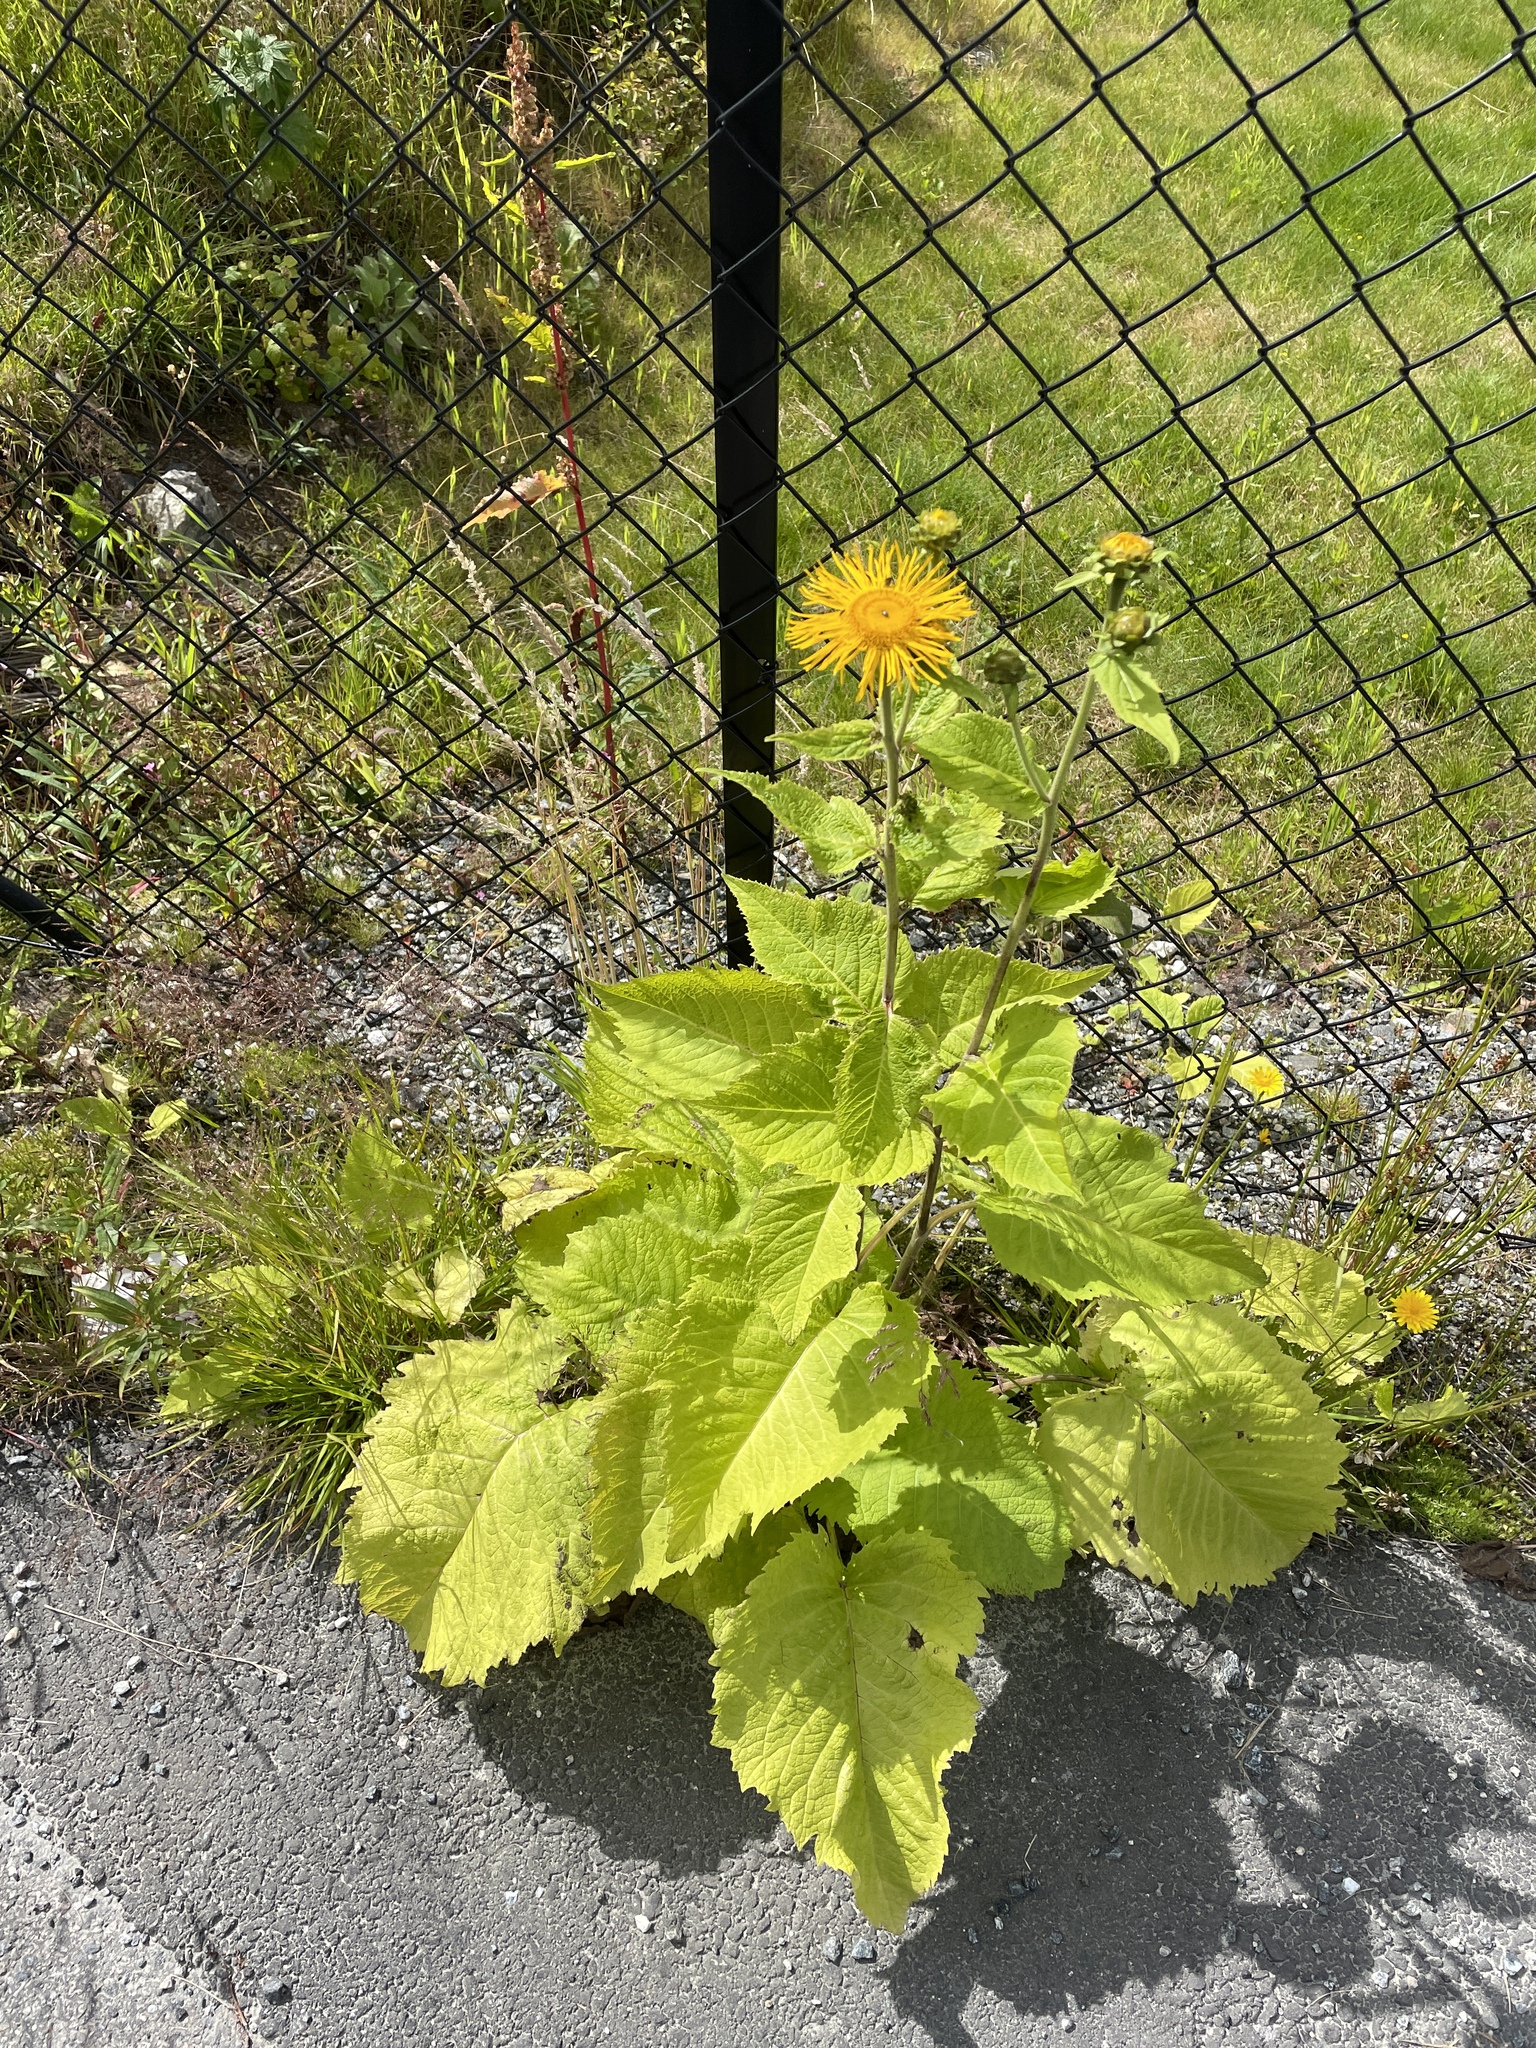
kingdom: Plantae
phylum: Tracheophyta
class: Magnoliopsida
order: Asterales
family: Asteraceae
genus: Telekia
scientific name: Telekia speciosa
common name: Yellow oxeye
